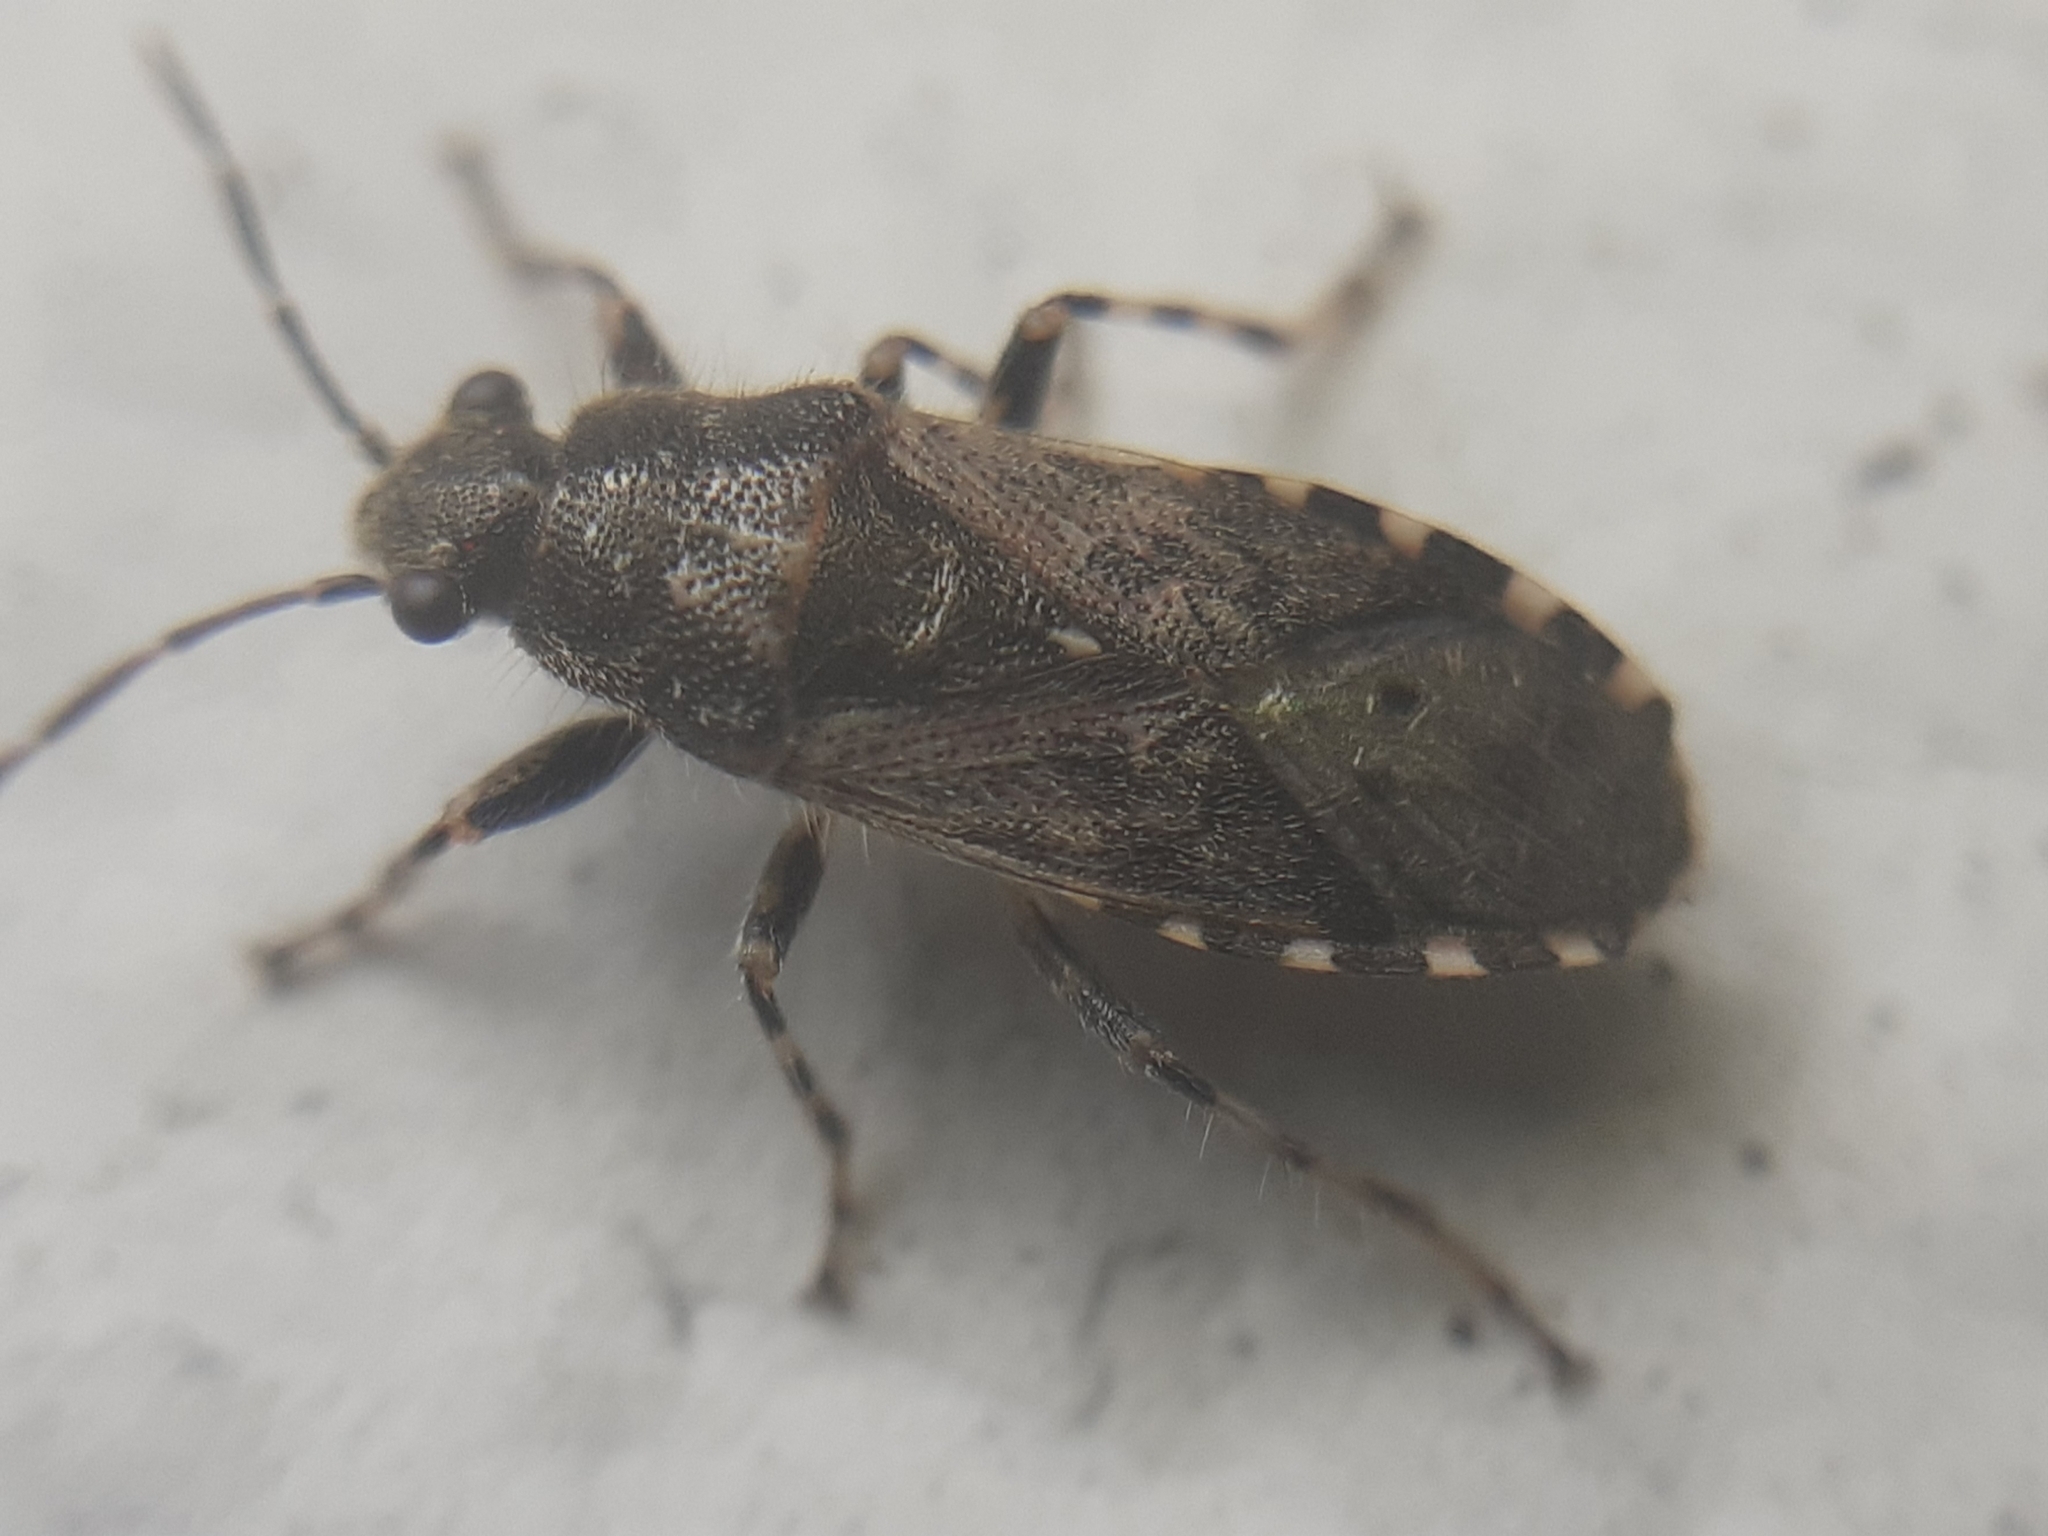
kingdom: Animalia
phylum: Arthropoda
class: Insecta
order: Hemiptera
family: Heterogastridae
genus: Heterogaster
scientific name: Heterogaster urticae
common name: Seed bug
